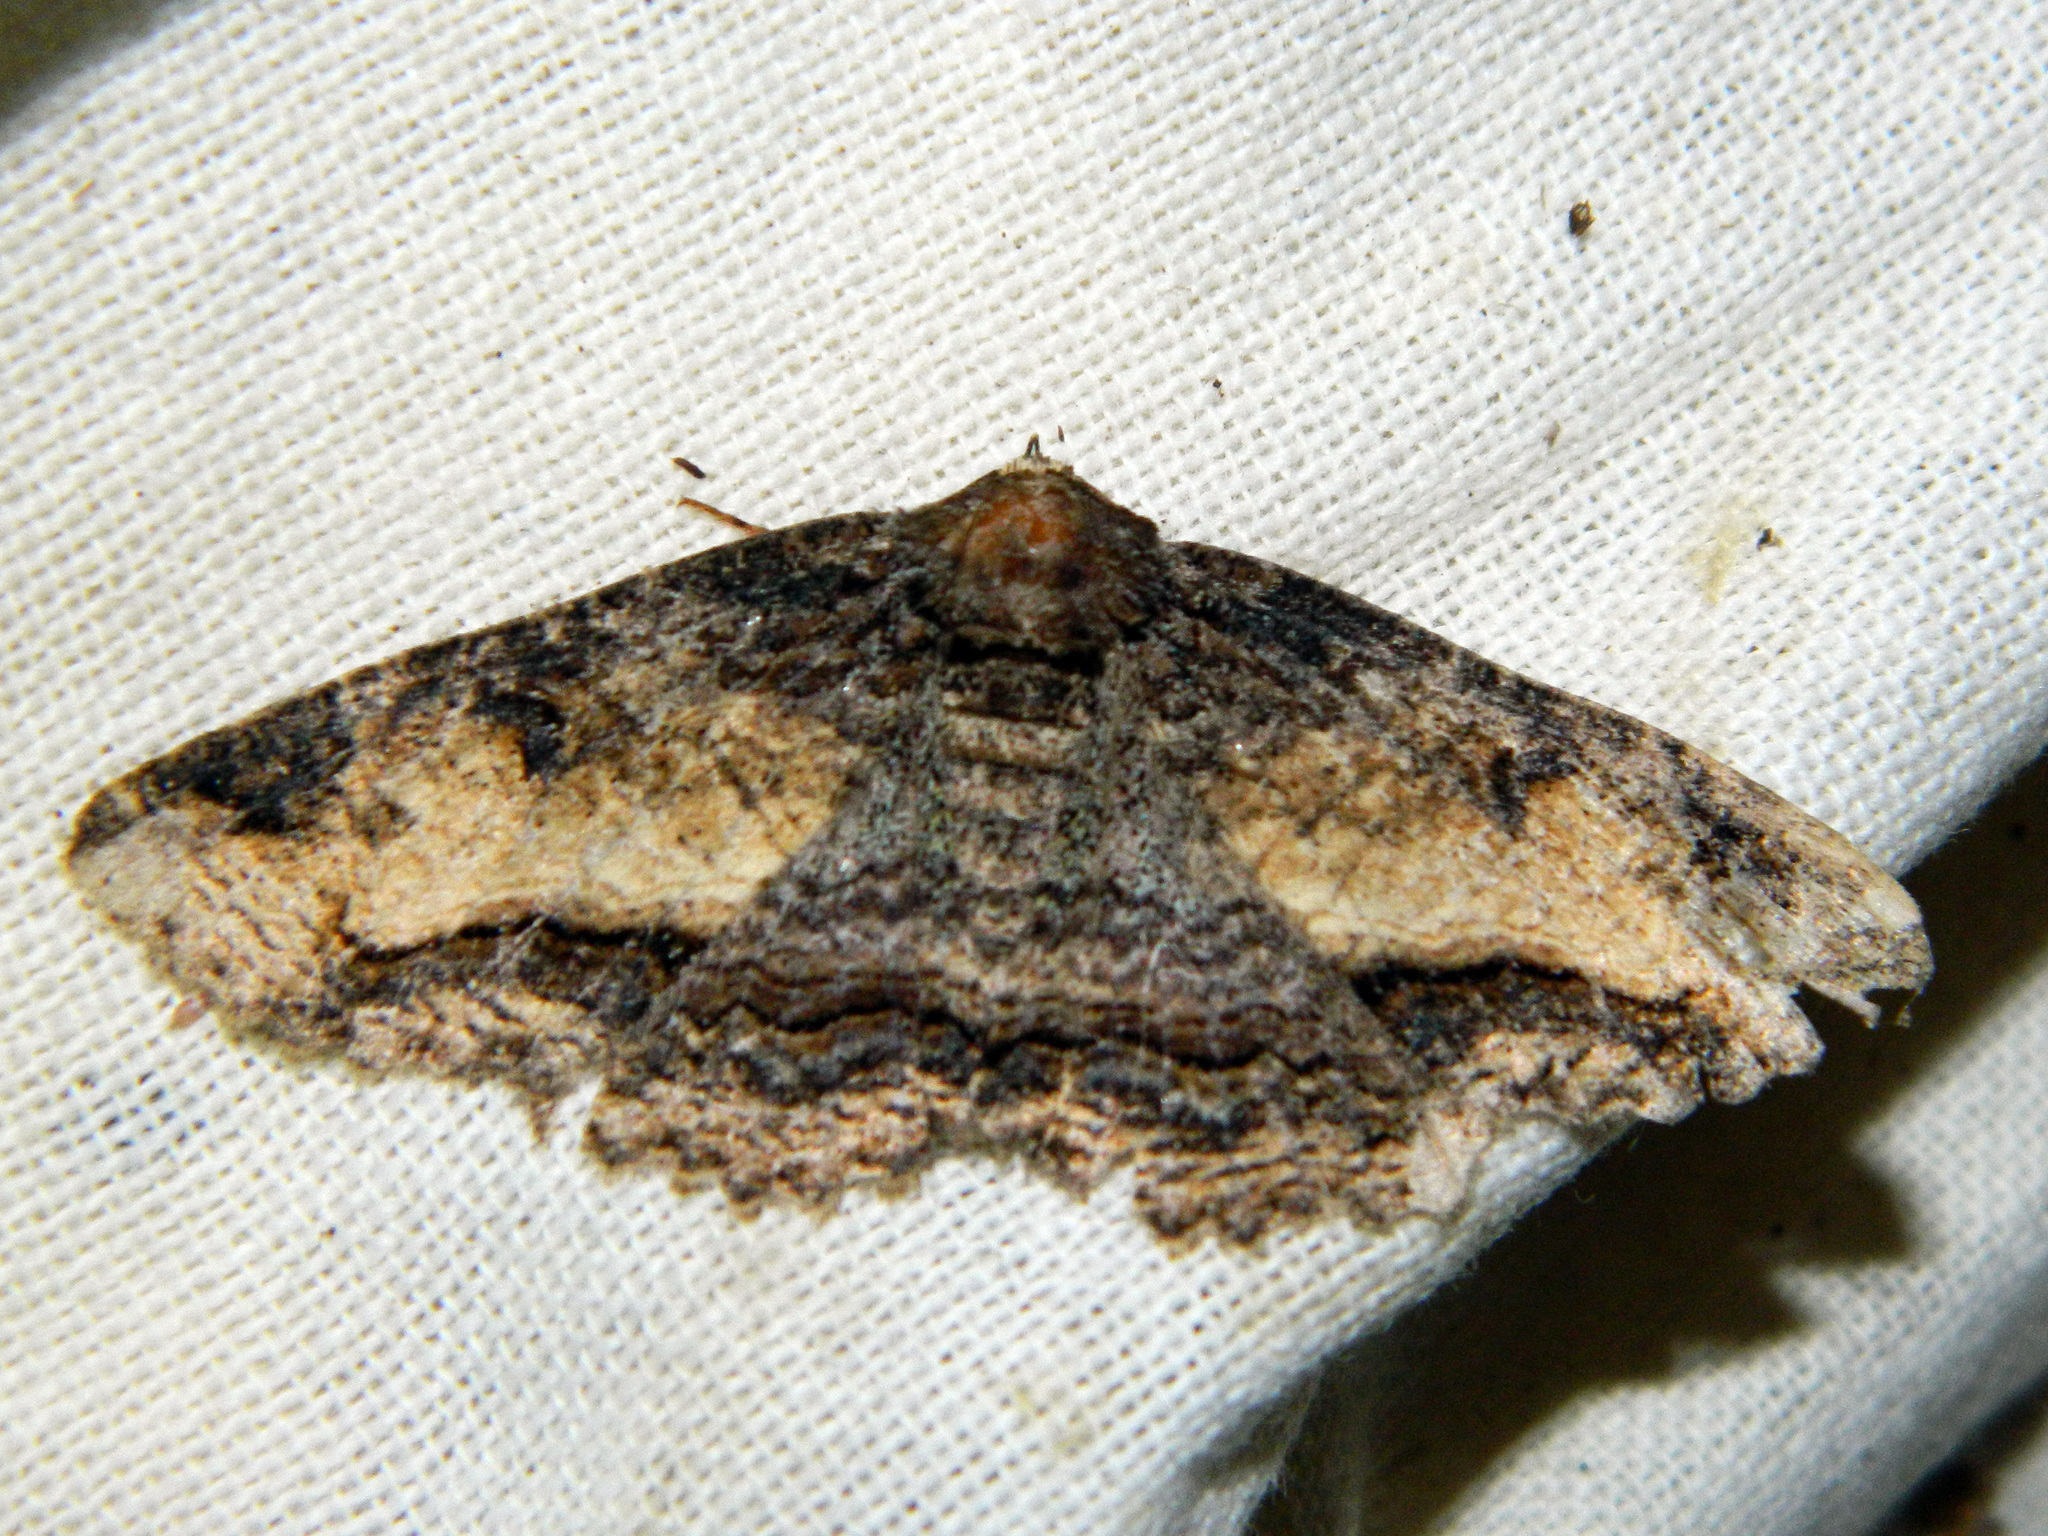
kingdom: Animalia
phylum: Arthropoda
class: Insecta
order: Lepidoptera
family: Erebidae
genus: Zale
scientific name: Zale minerea
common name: Colorful zale moth
